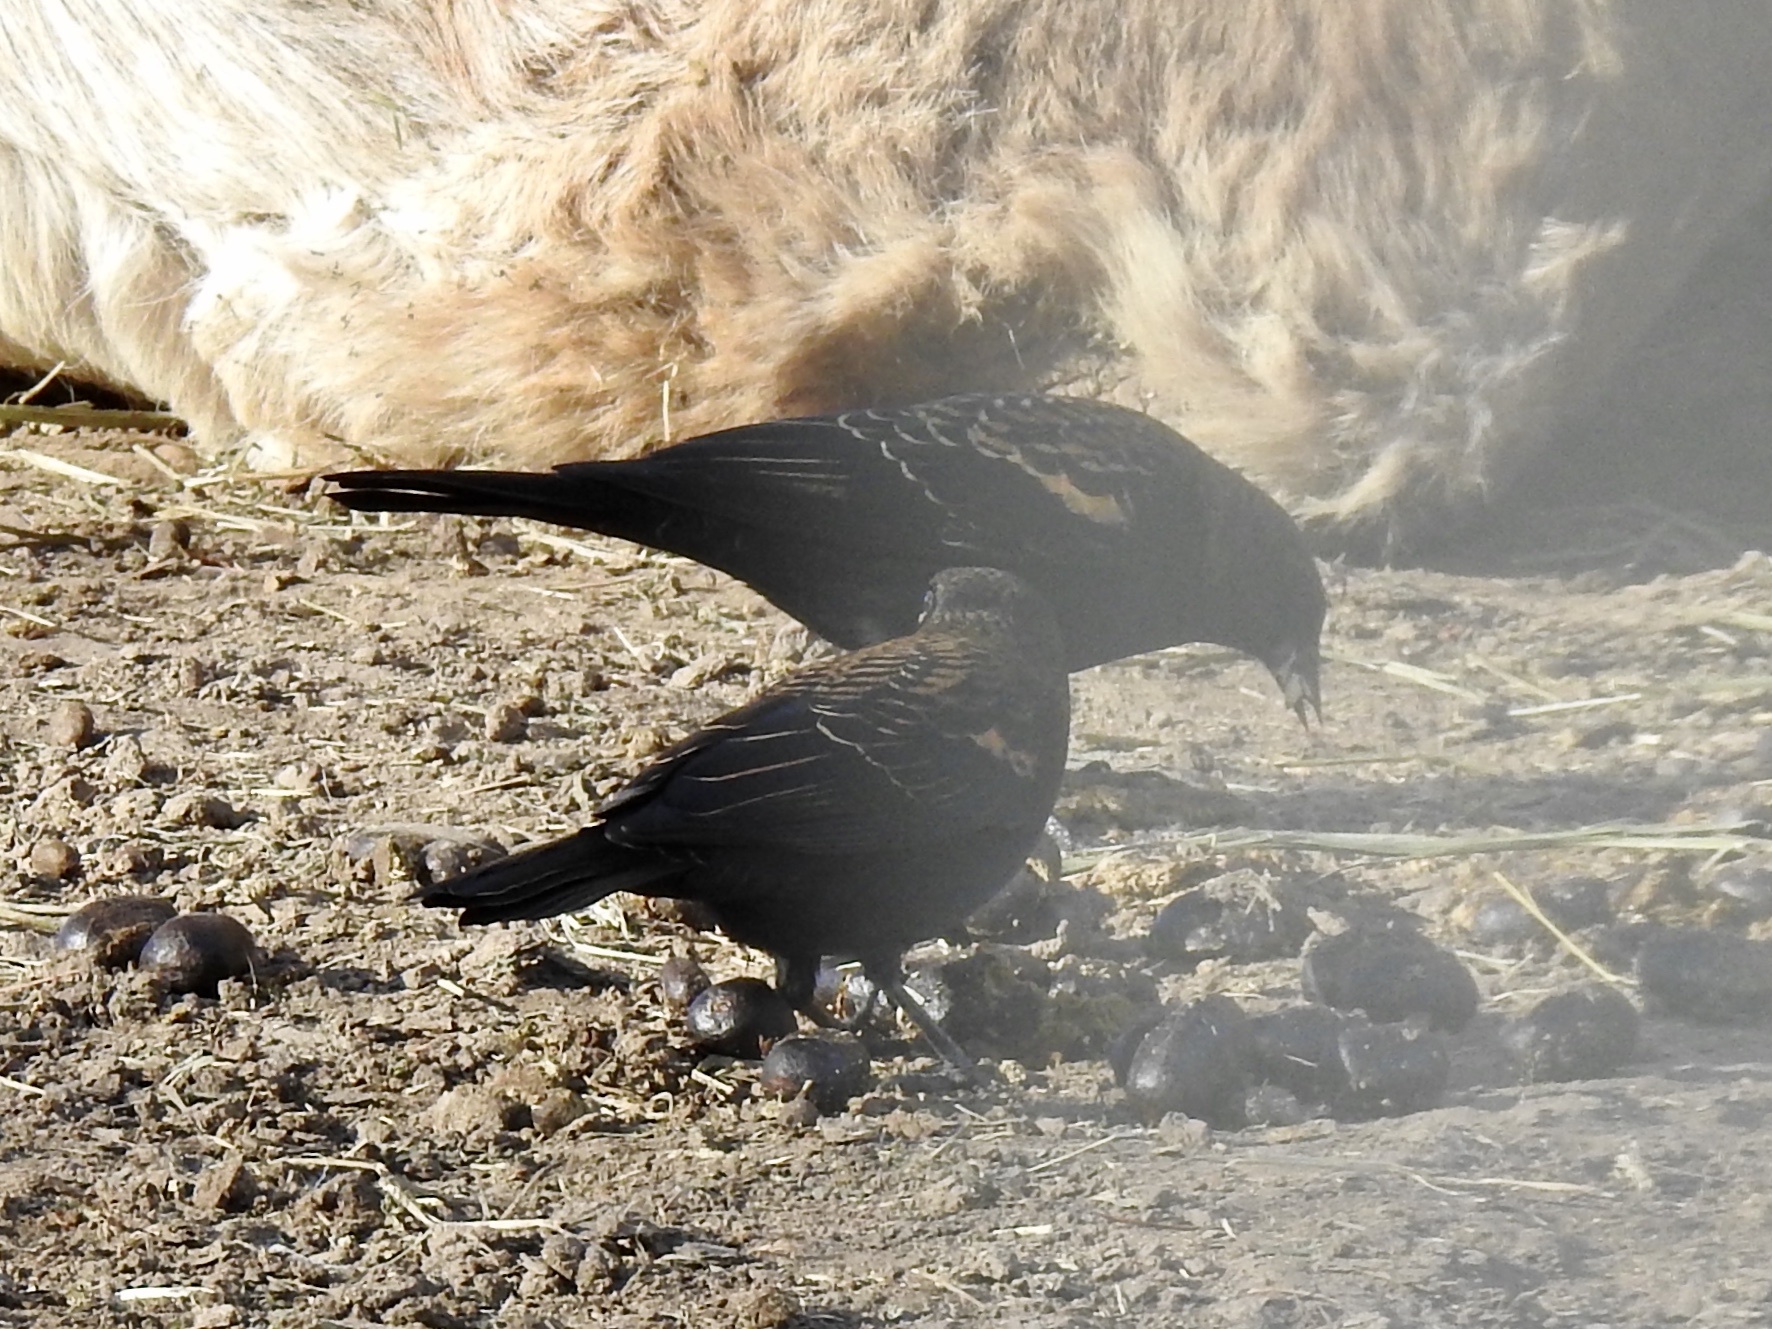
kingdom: Animalia
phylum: Chordata
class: Aves
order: Passeriformes
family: Icteridae
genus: Agelaius
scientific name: Agelaius phoeniceus
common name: Red-winged blackbird
